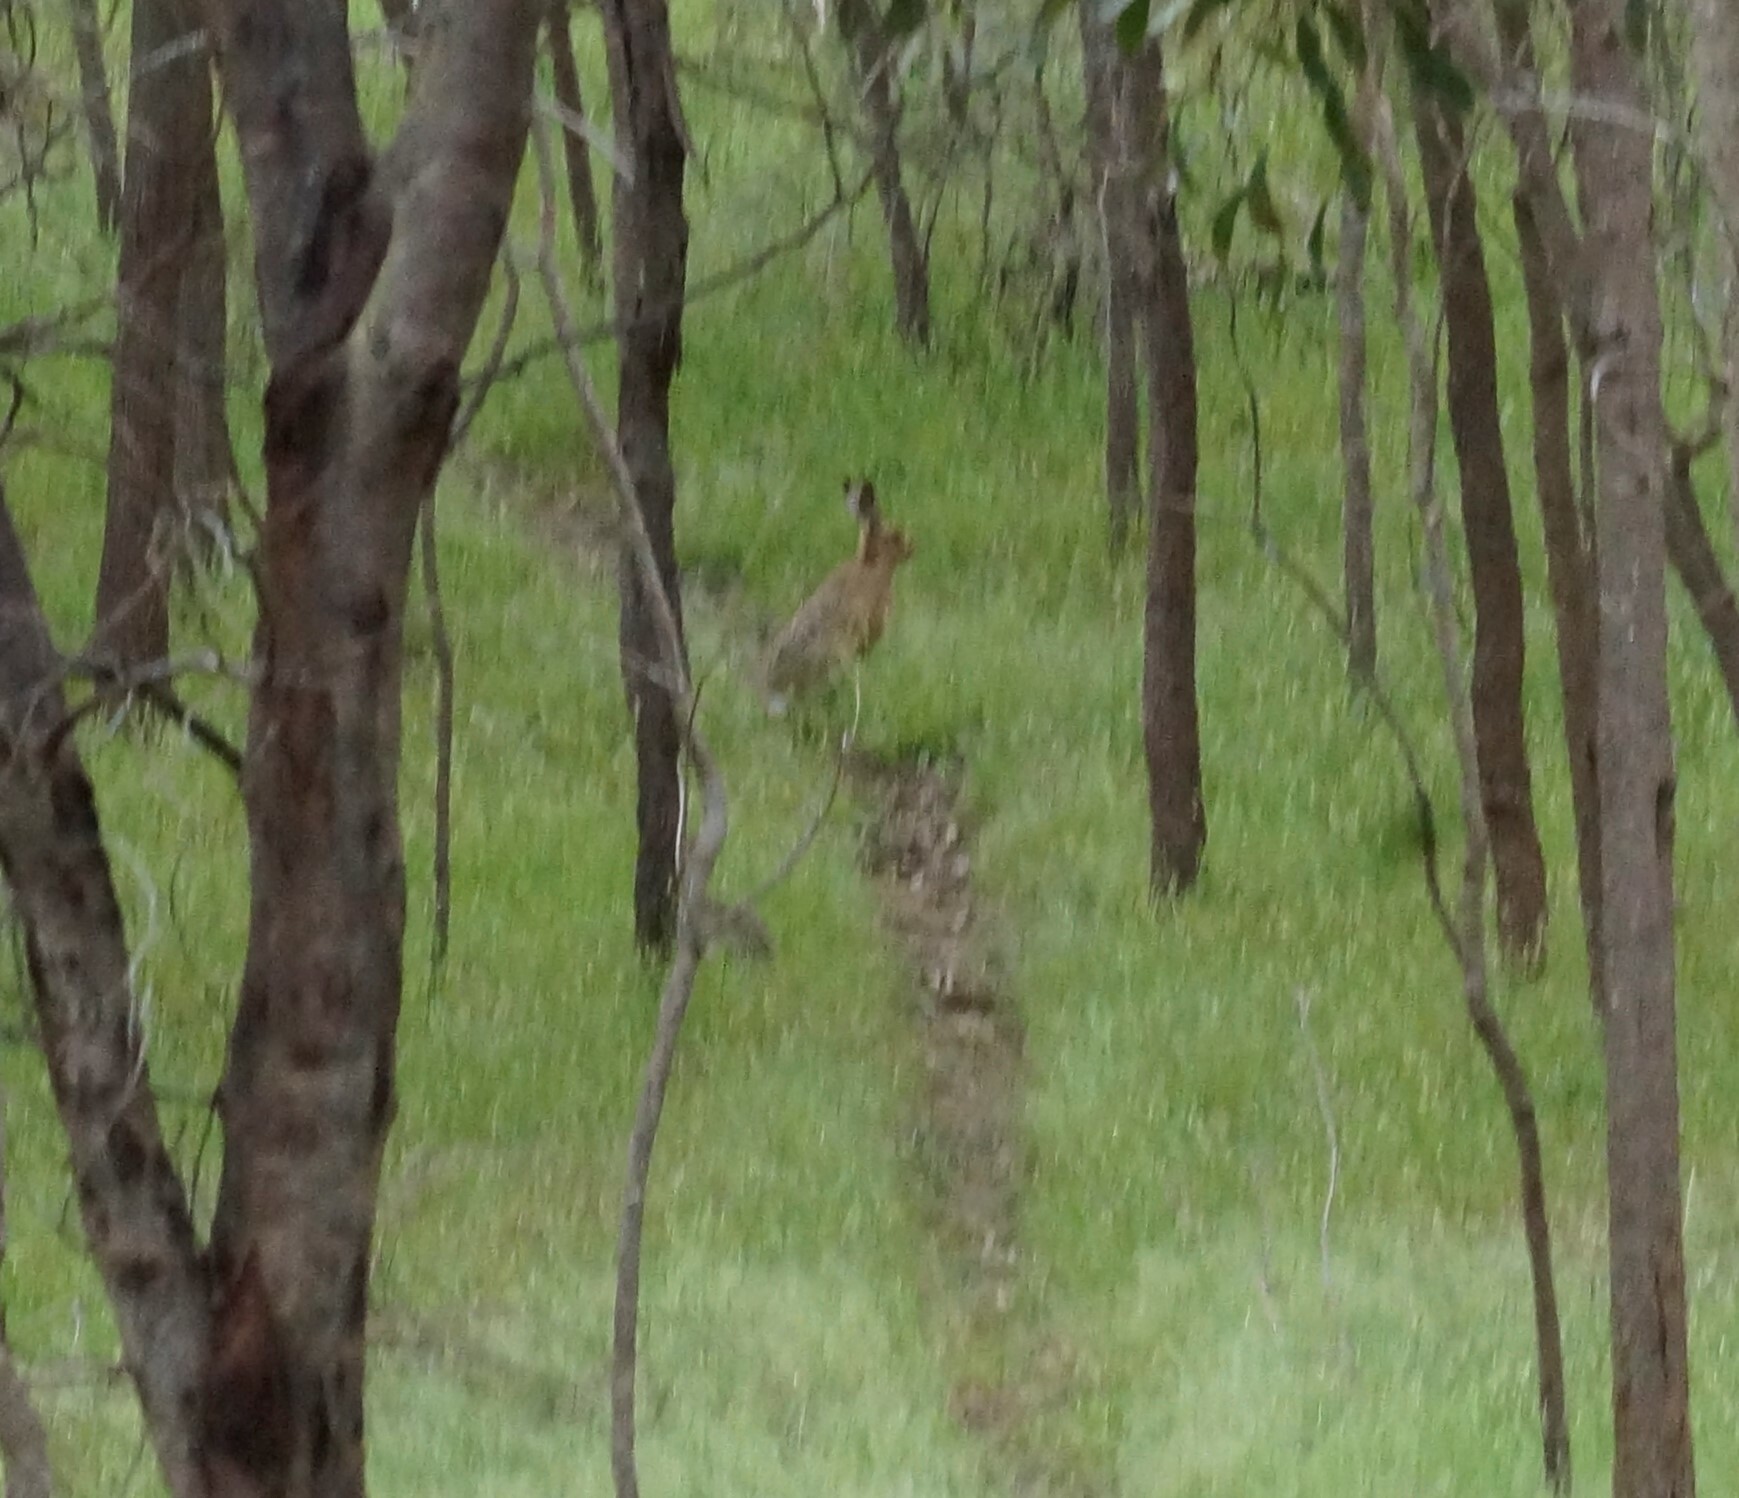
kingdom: Animalia
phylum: Chordata
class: Mammalia
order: Lagomorpha
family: Leporidae
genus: Lepus
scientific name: Lepus europaeus
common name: European hare
